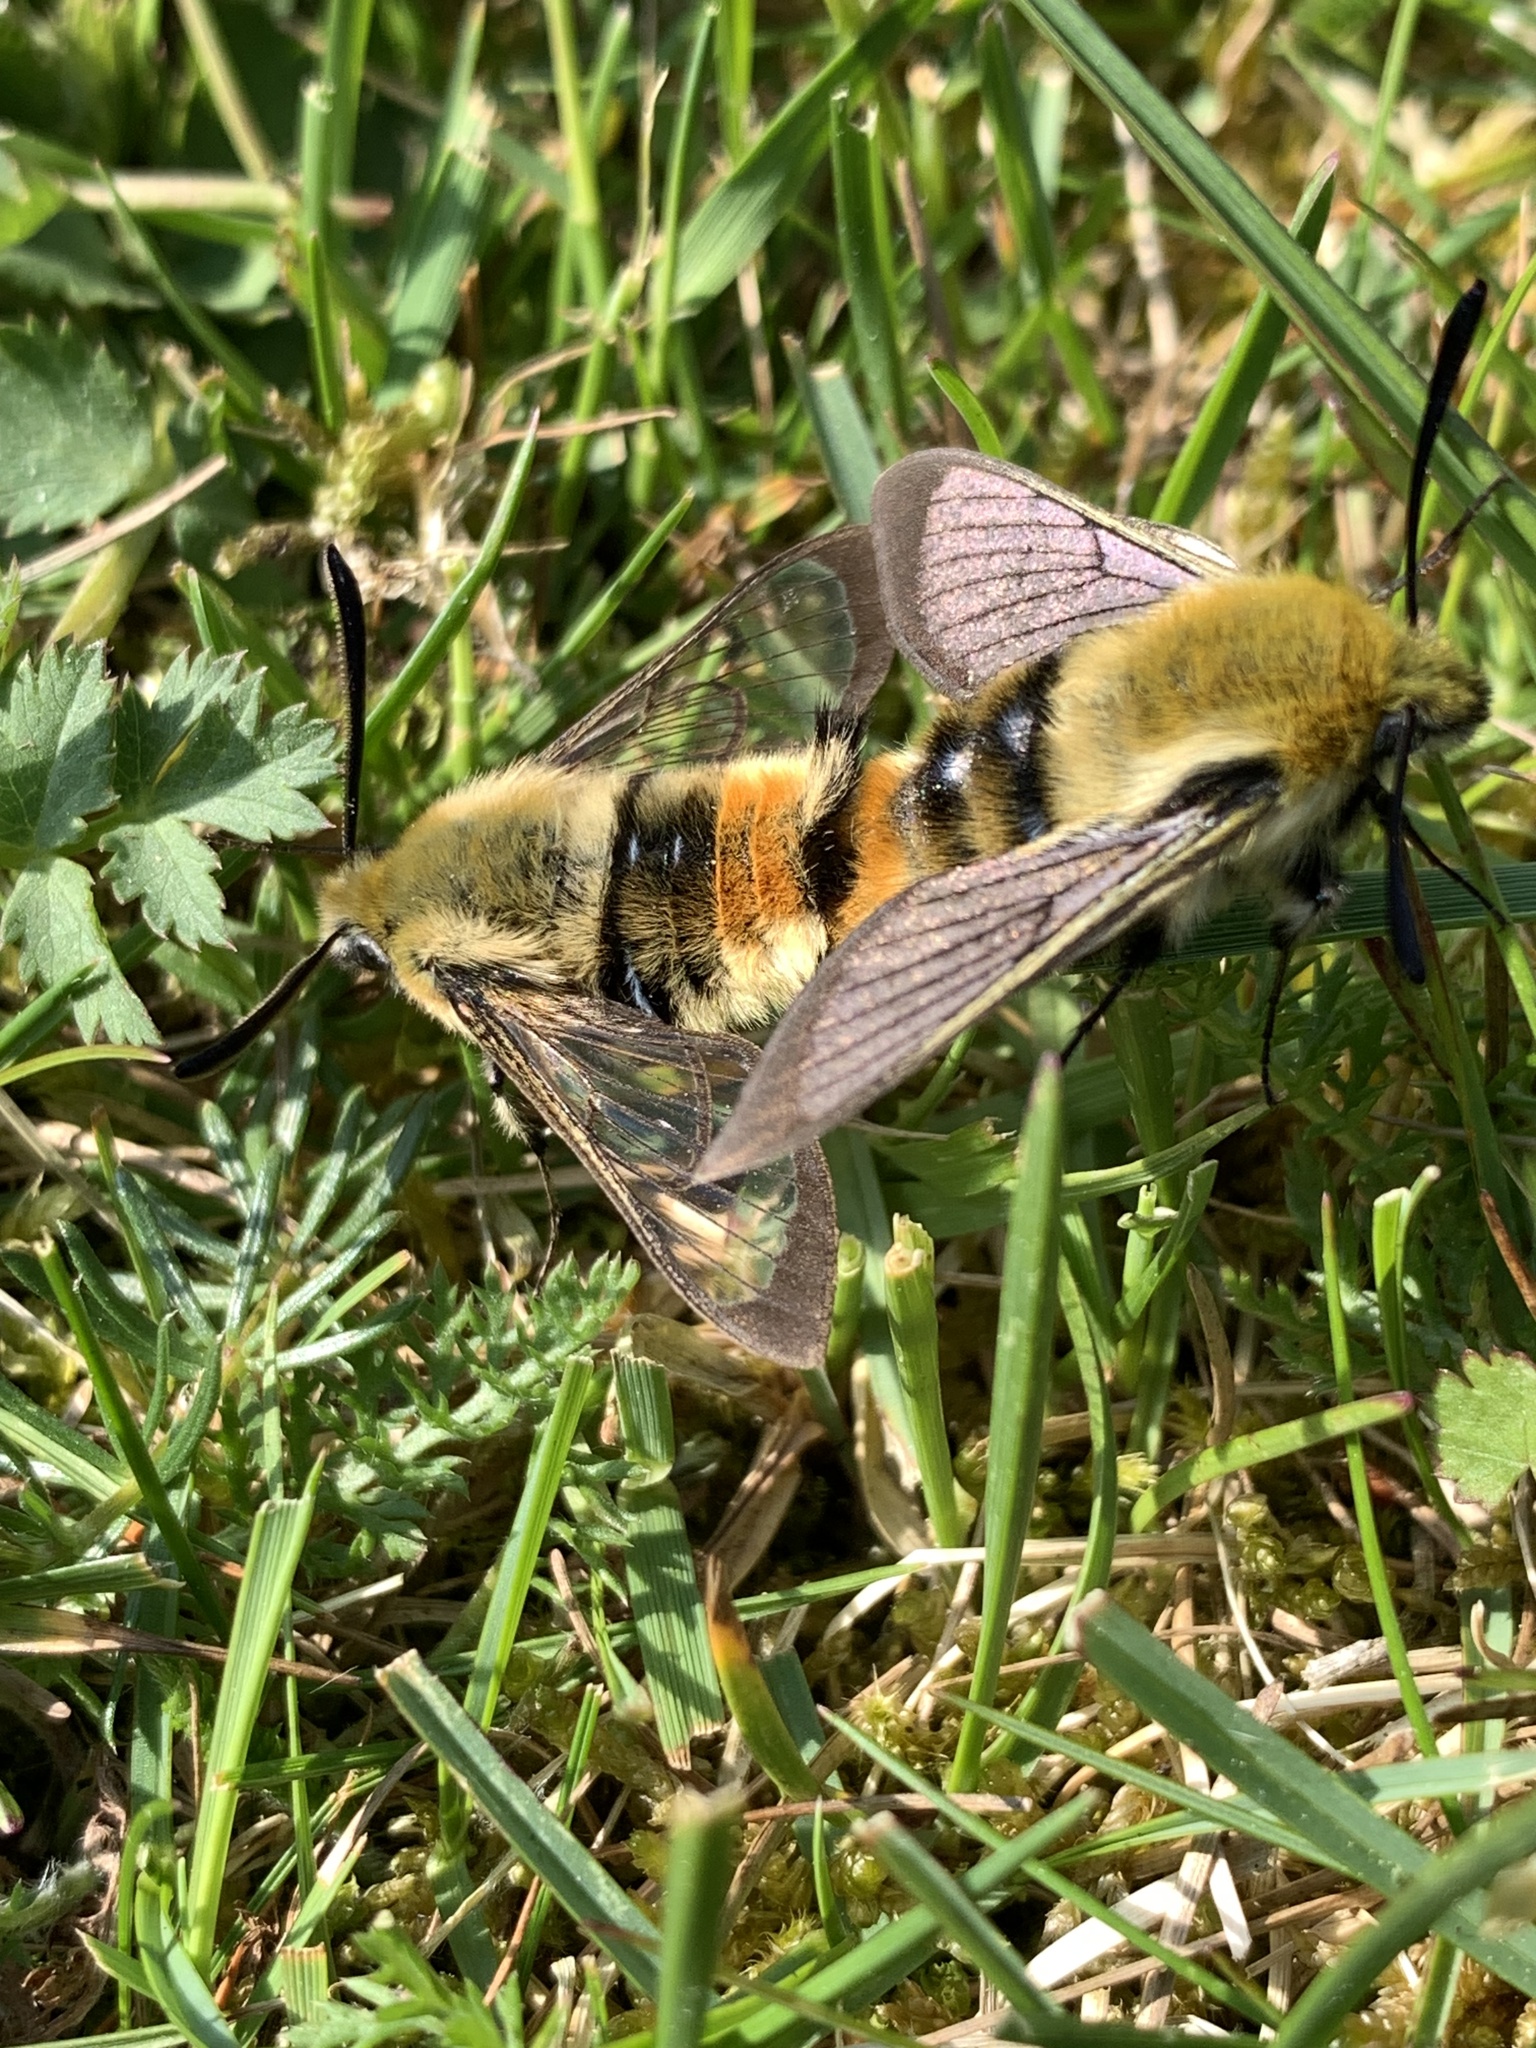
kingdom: Animalia
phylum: Arthropoda
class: Insecta
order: Lepidoptera
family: Sphingidae
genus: Hemaris
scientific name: Hemaris tityus
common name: Narrow-bordered bee hawk-moth
